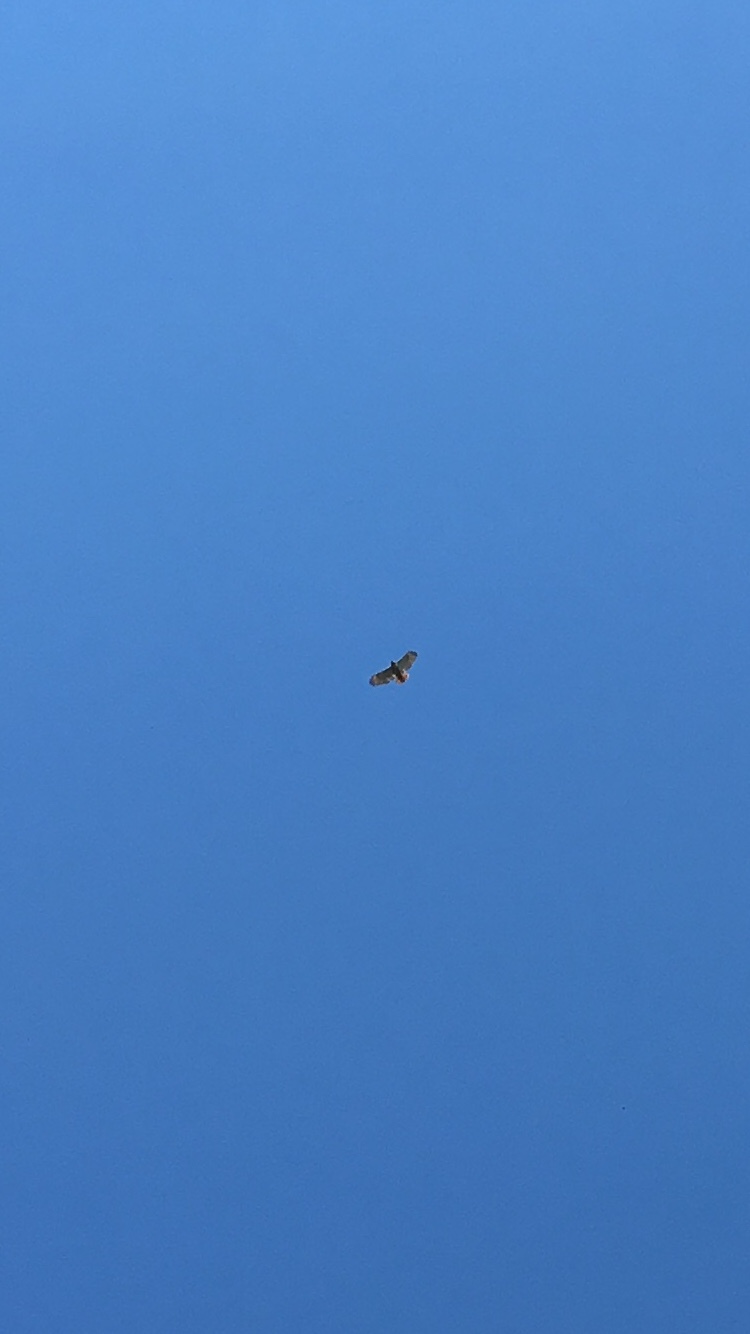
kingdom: Animalia
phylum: Chordata
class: Aves
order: Accipitriformes
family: Accipitridae
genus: Buteo
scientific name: Buteo jamaicensis
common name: Red-tailed hawk
